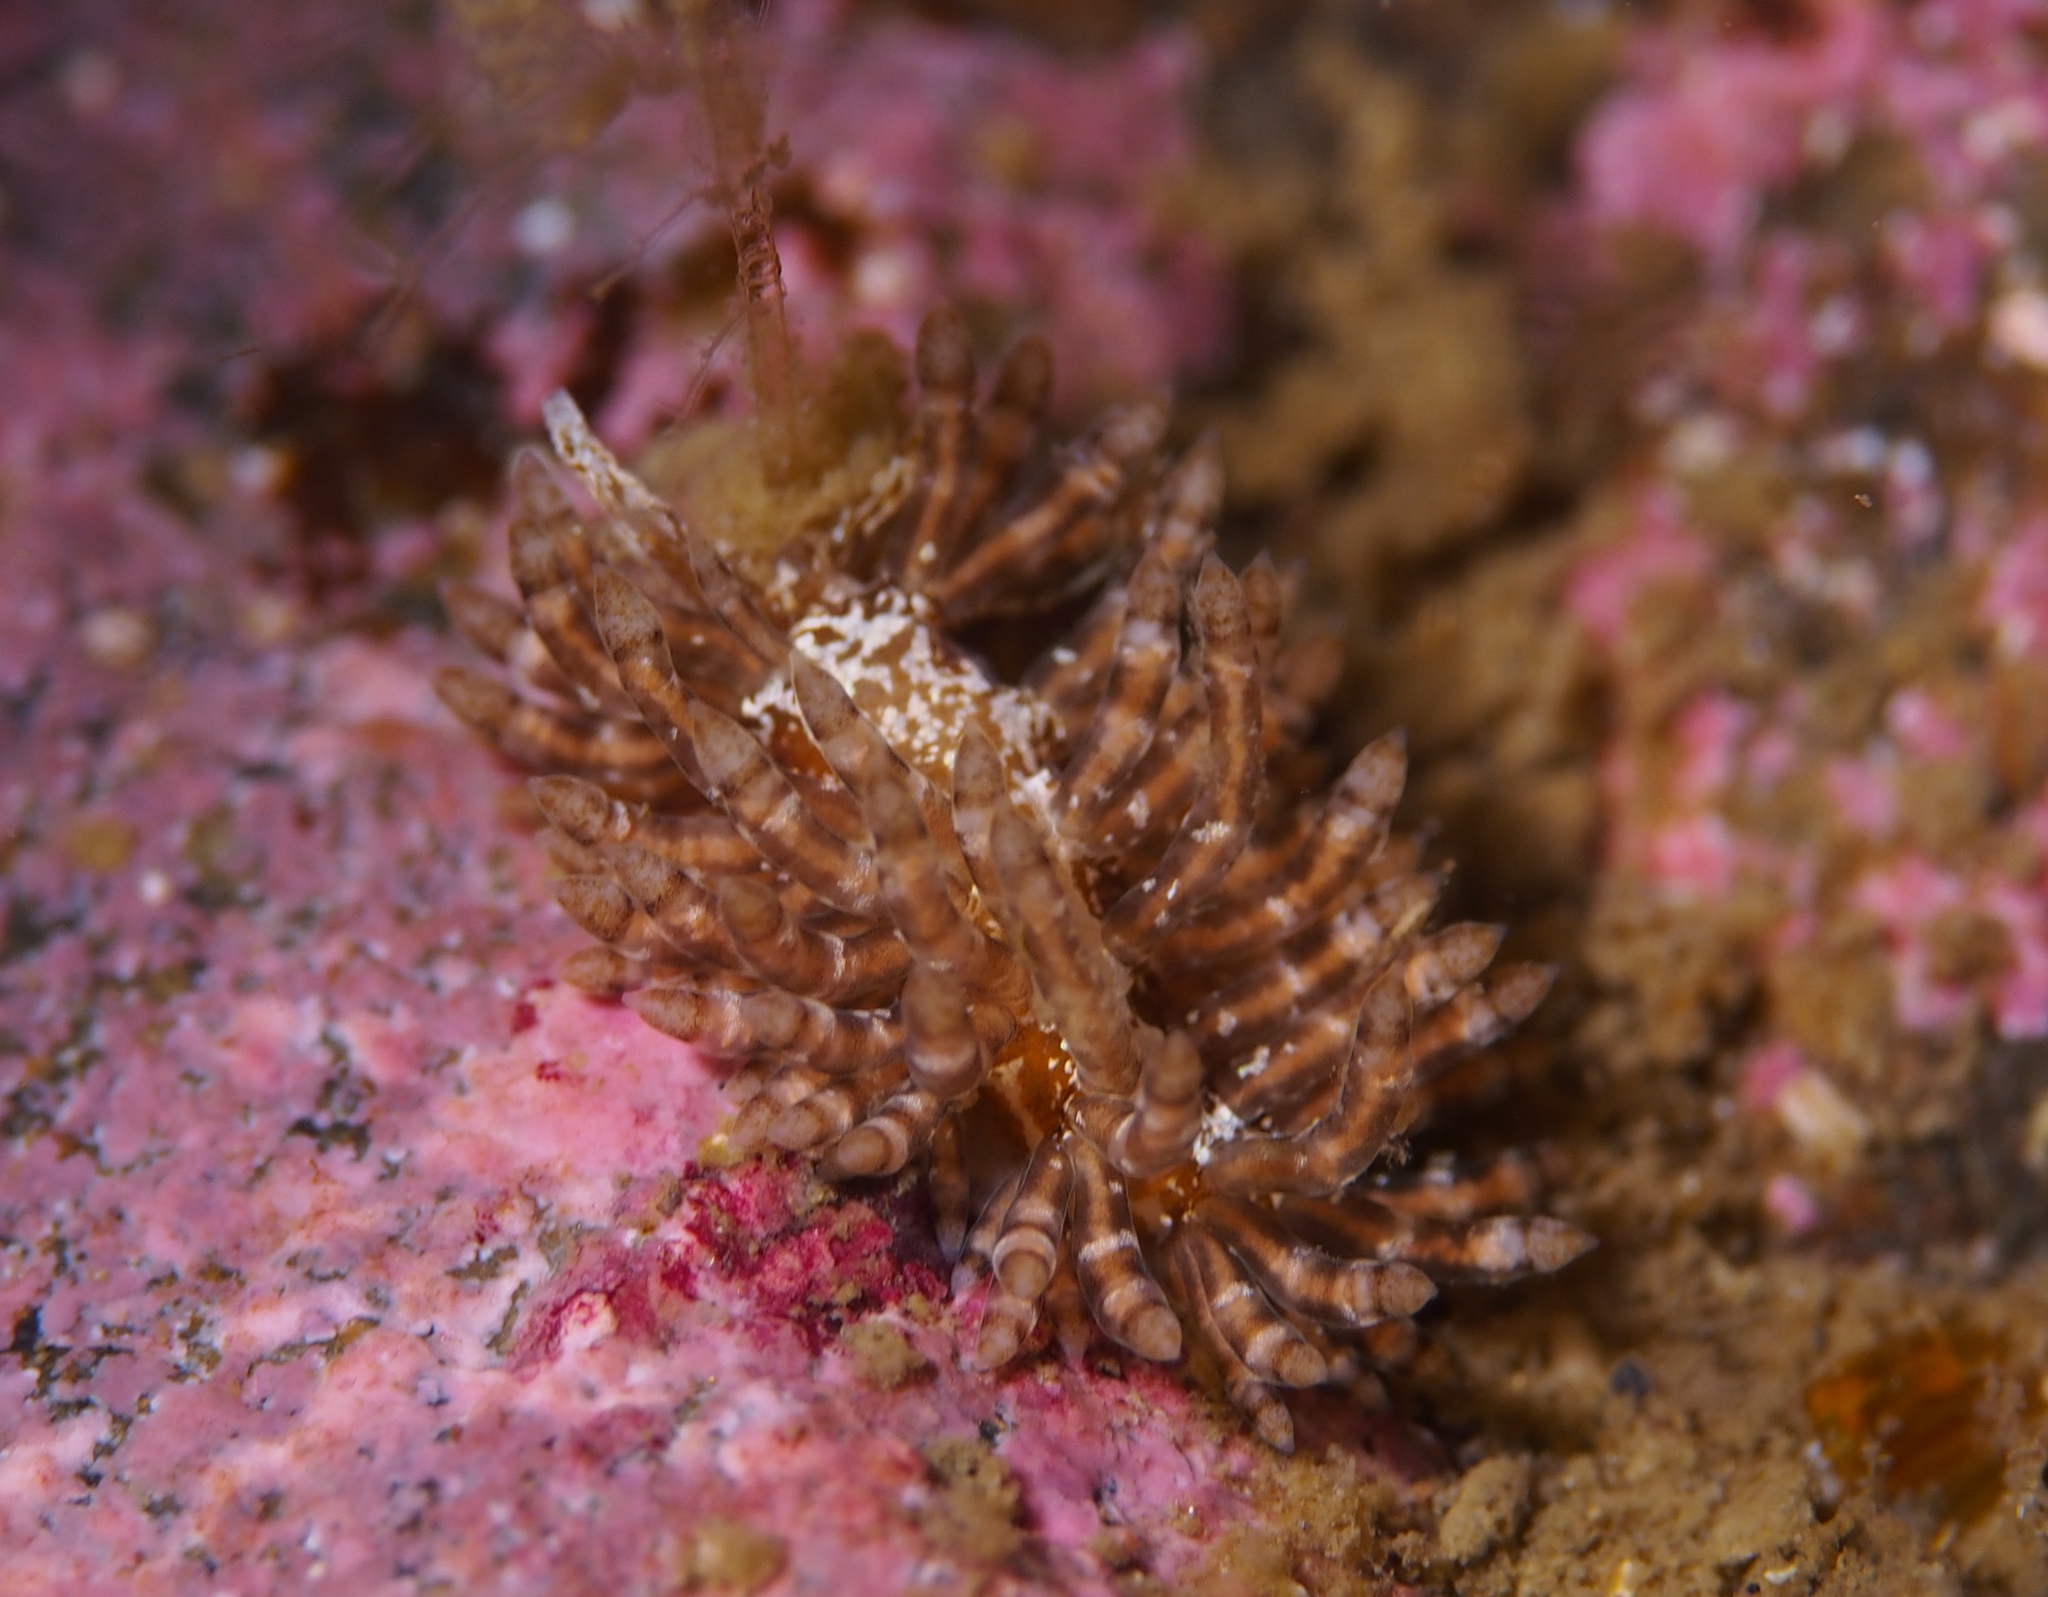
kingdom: Animalia
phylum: Mollusca
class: Gastropoda
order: Nudibranchia
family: Eubranchidae
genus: Eubranchus
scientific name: Eubranchus vittatus
